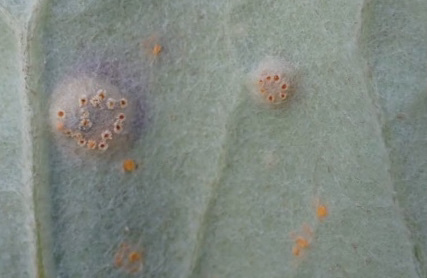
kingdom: Fungi
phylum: Basidiomycota
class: Pucciniomycetes
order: Pucciniales
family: Pucciniaceae
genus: Puccinia
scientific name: Puccinia poarum
